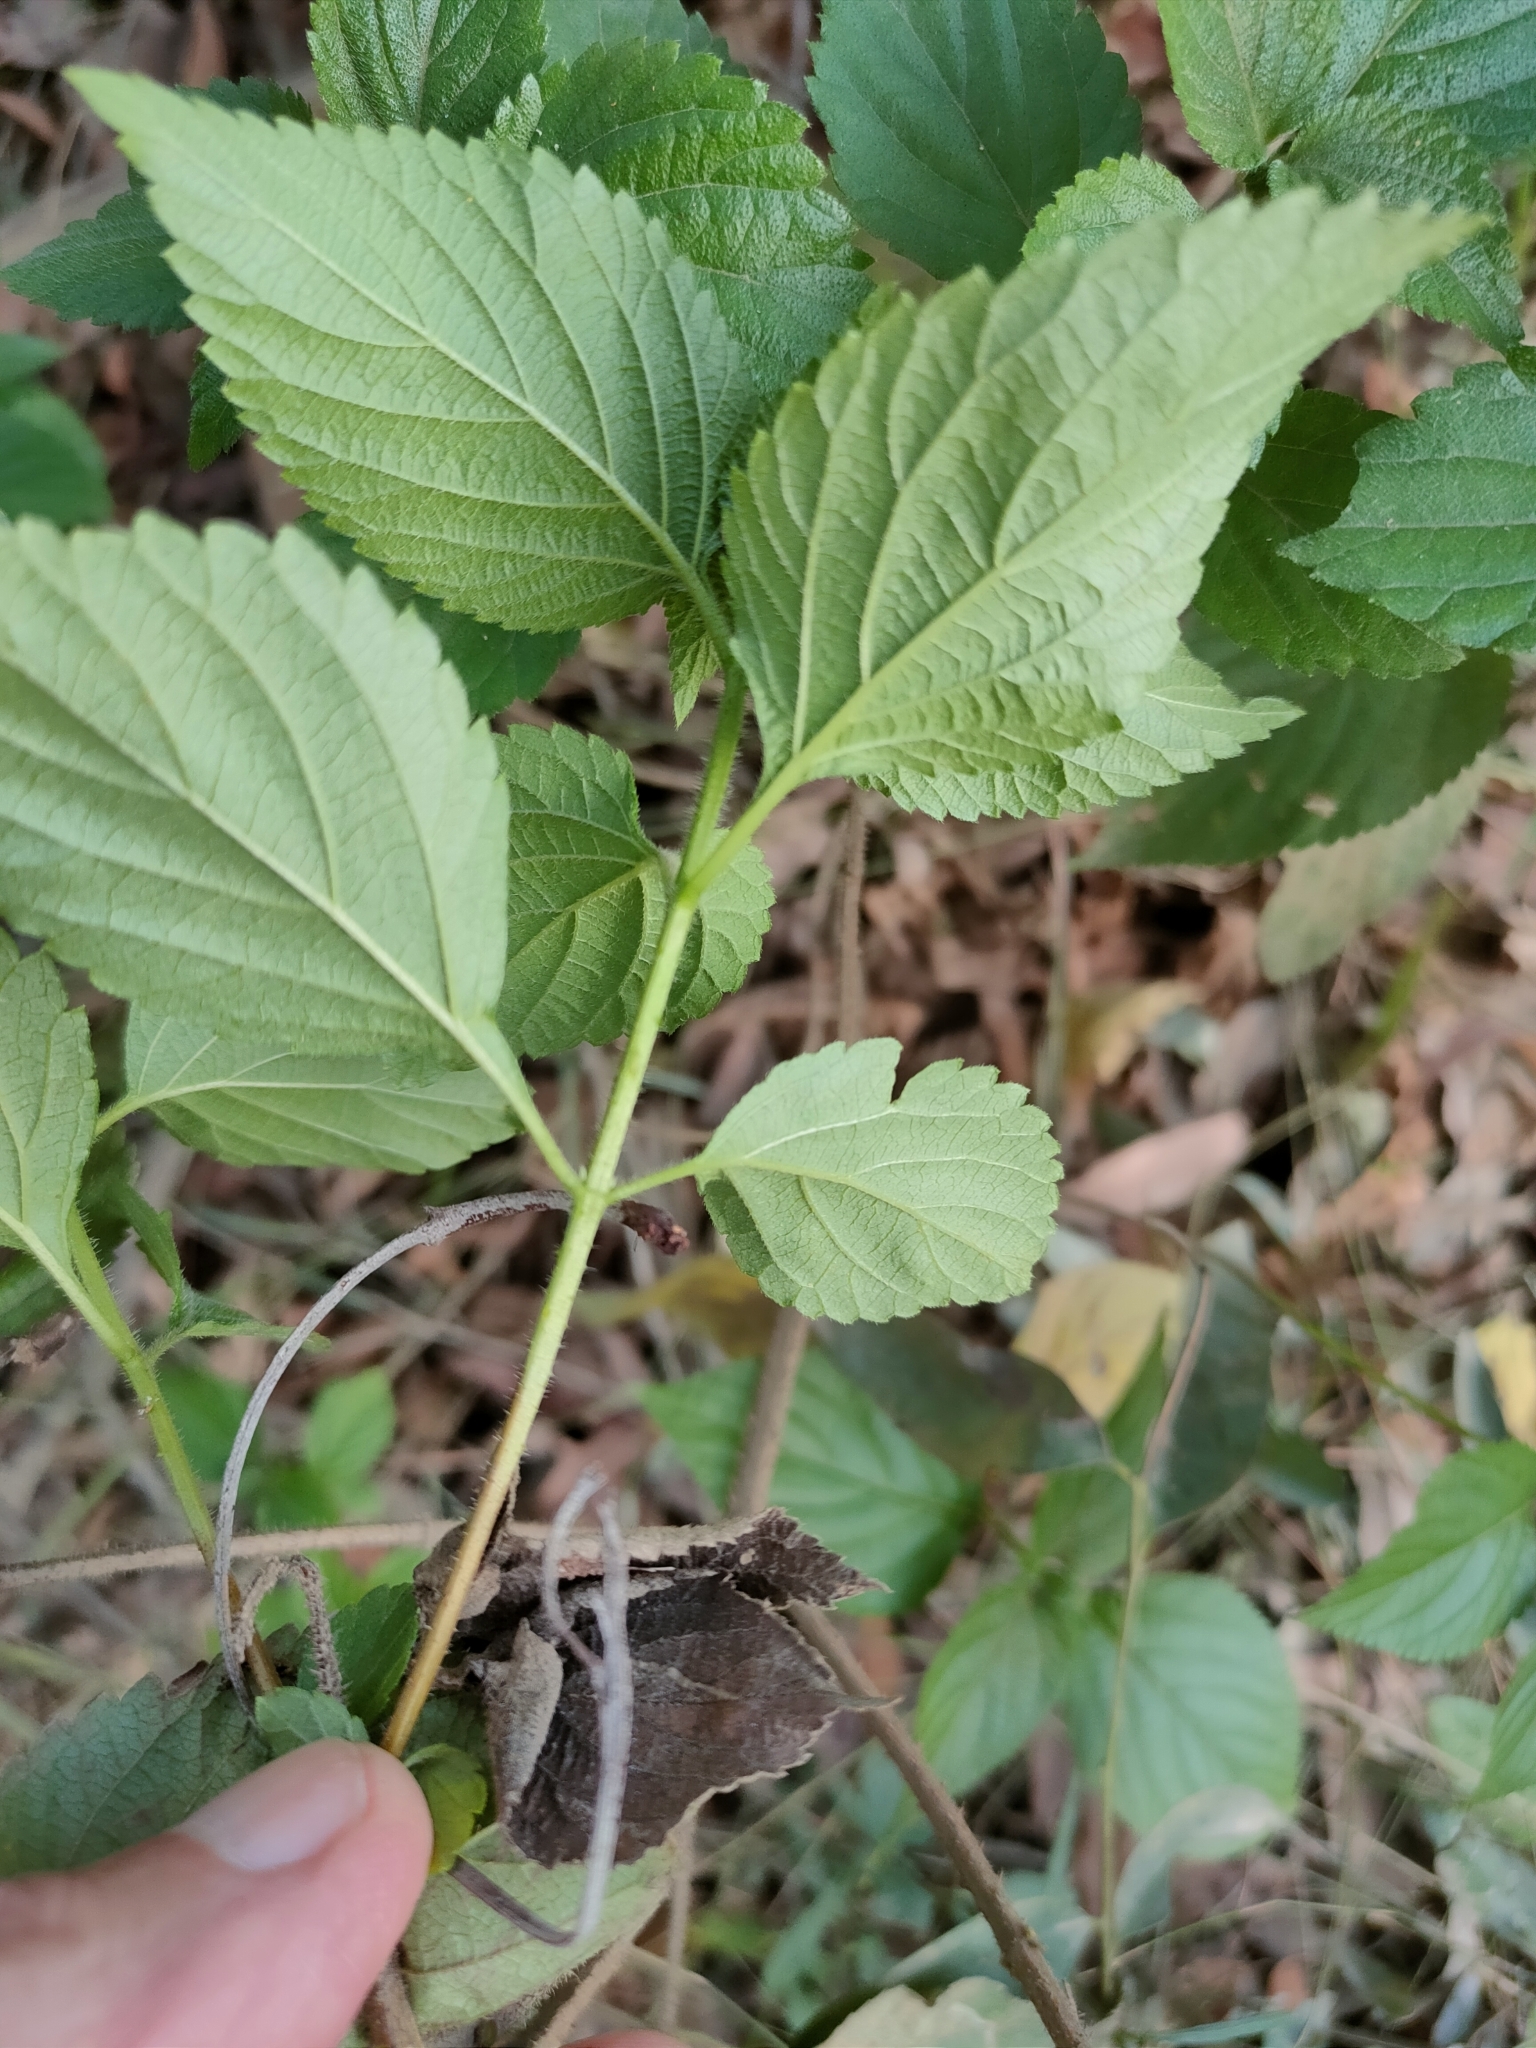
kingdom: Plantae
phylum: Tracheophyta
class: Magnoliopsida
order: Lamiales
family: Verbenaceae
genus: Lantana
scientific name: Lantana camara
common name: Lantana
